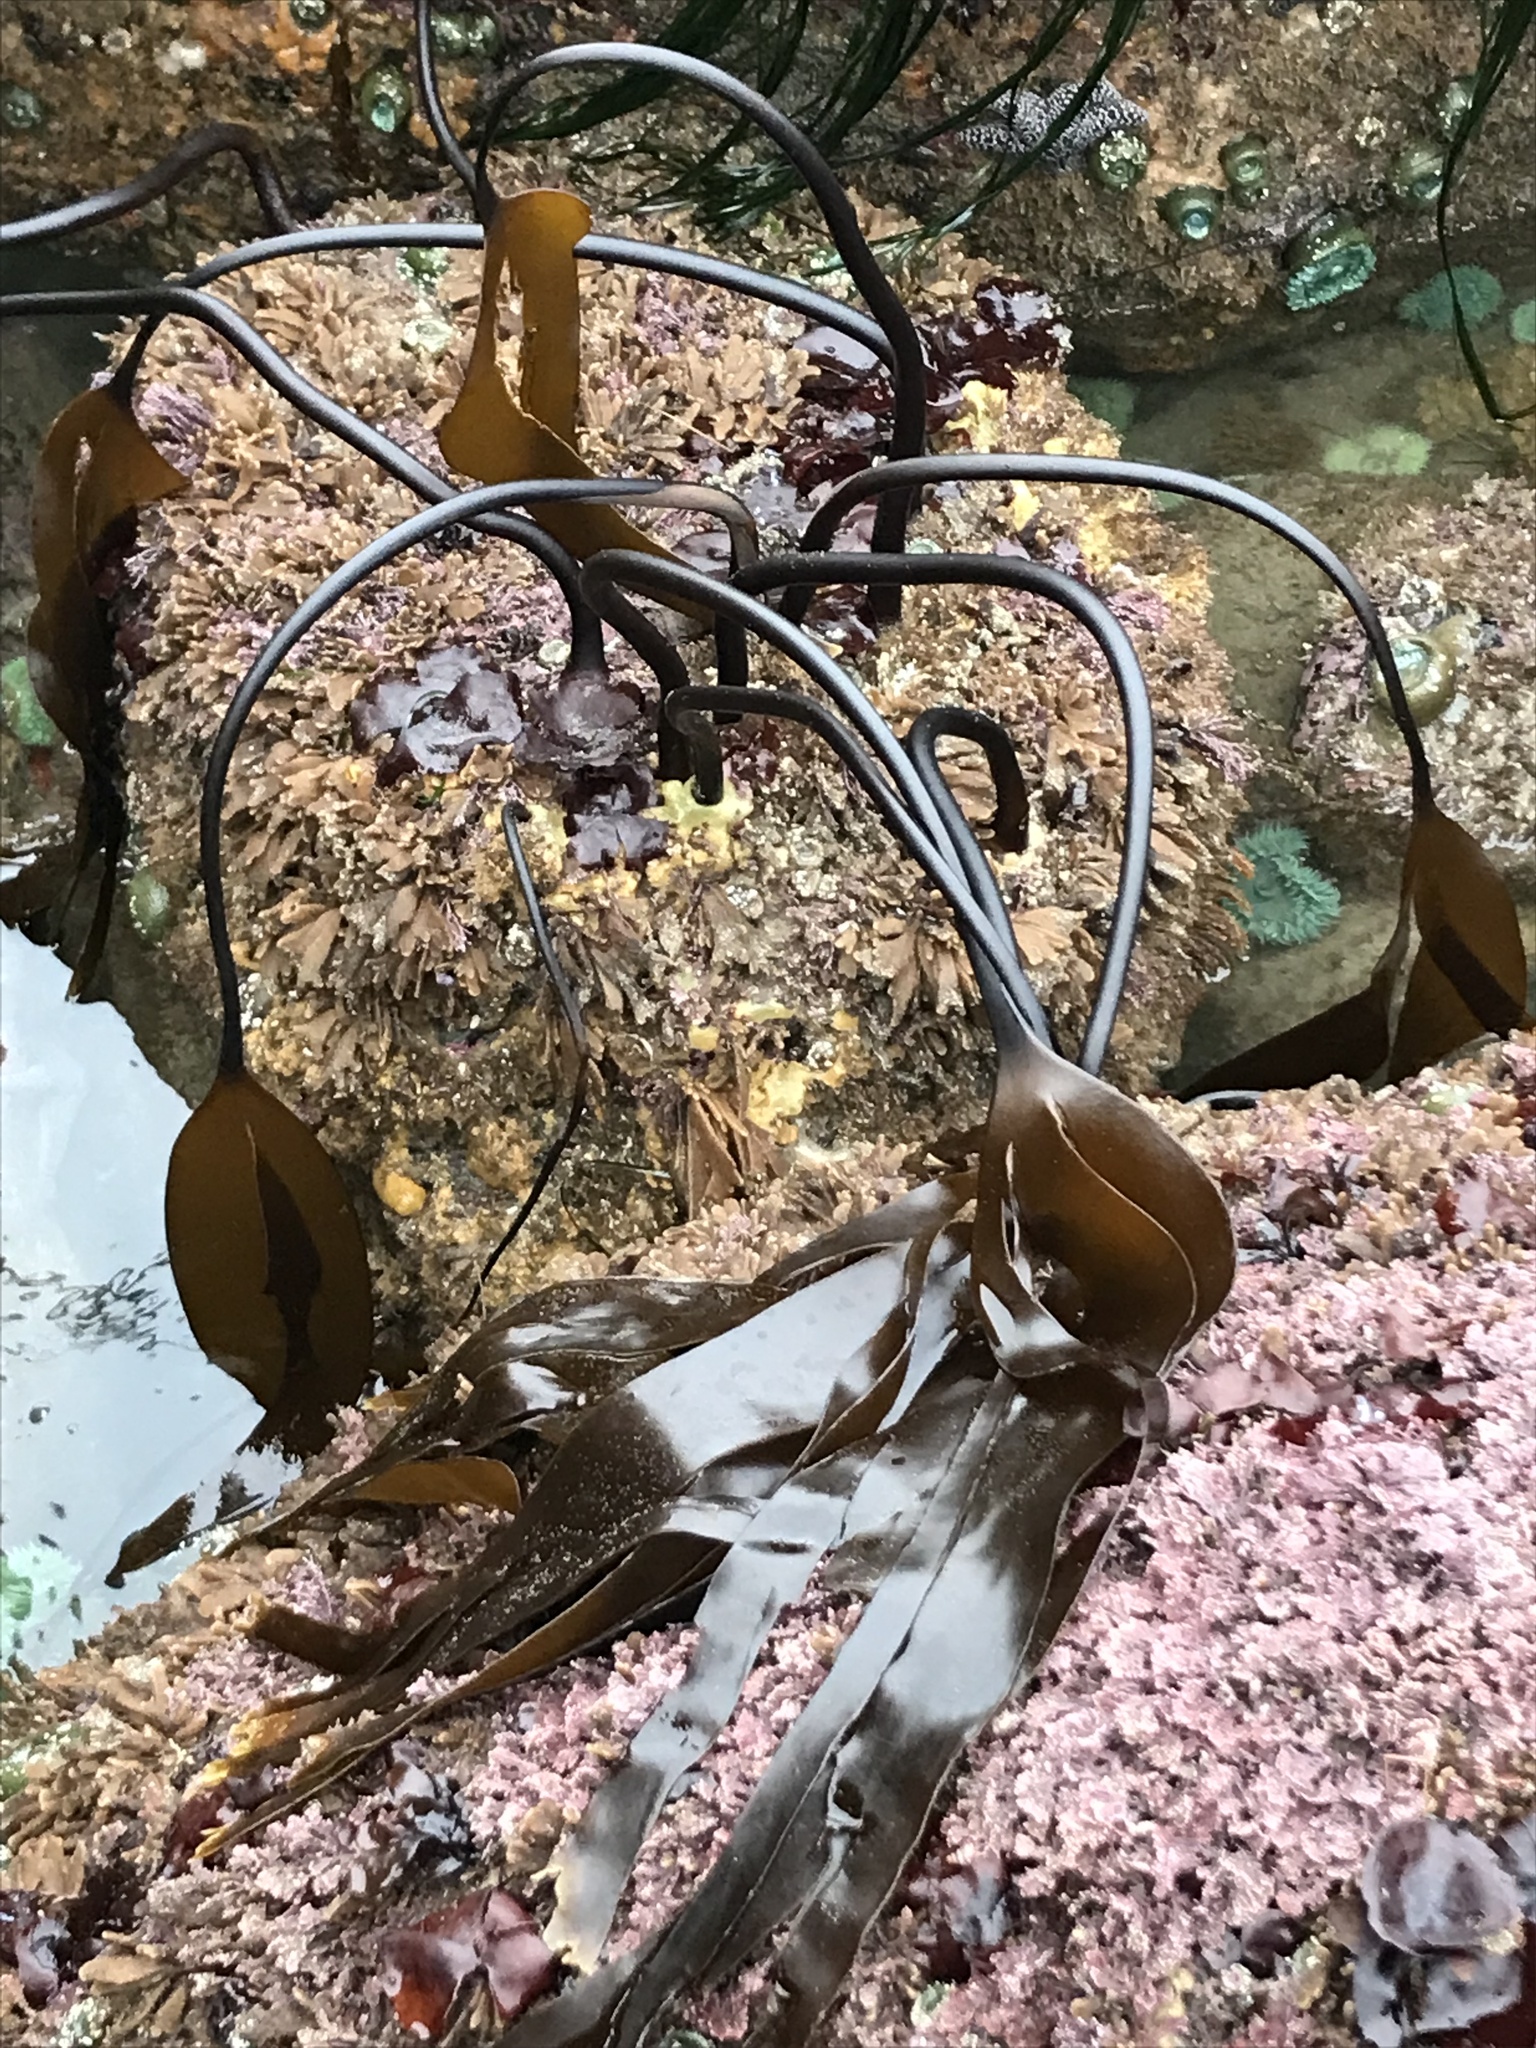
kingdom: Chromista
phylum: Ochrophyta
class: Phaeophyceae
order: Laminariales
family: Laminariaceae
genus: Laminaria
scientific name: Laminaria setchellii
